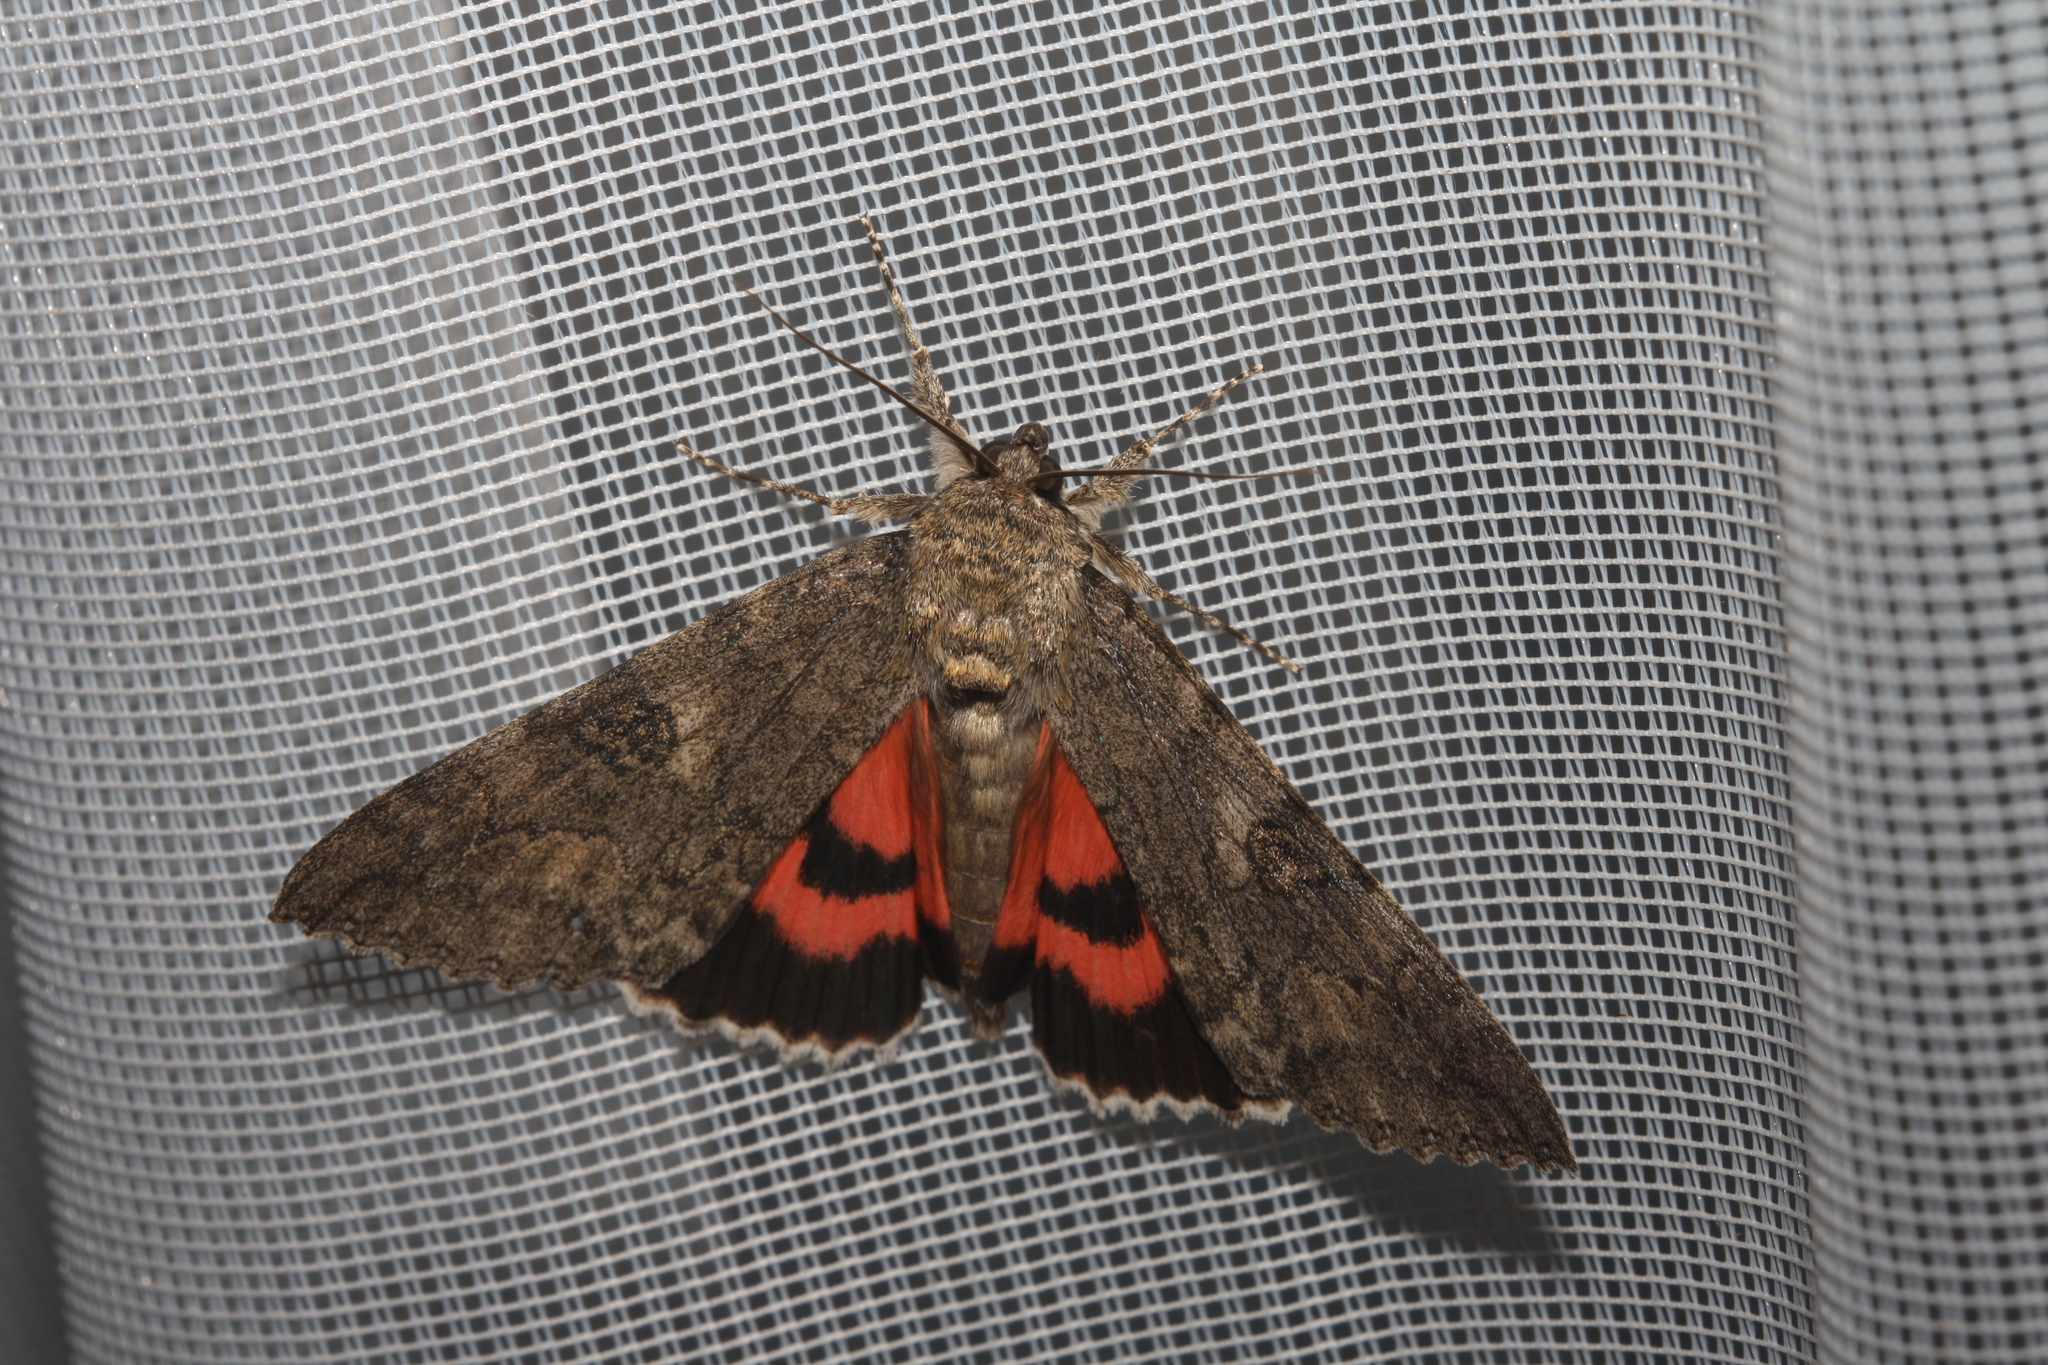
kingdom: Animalia
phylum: Arthropoda
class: Insecta
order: Lepidoptera
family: Erebidae
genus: Catocala
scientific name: Catocala nupta
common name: Red underwing
